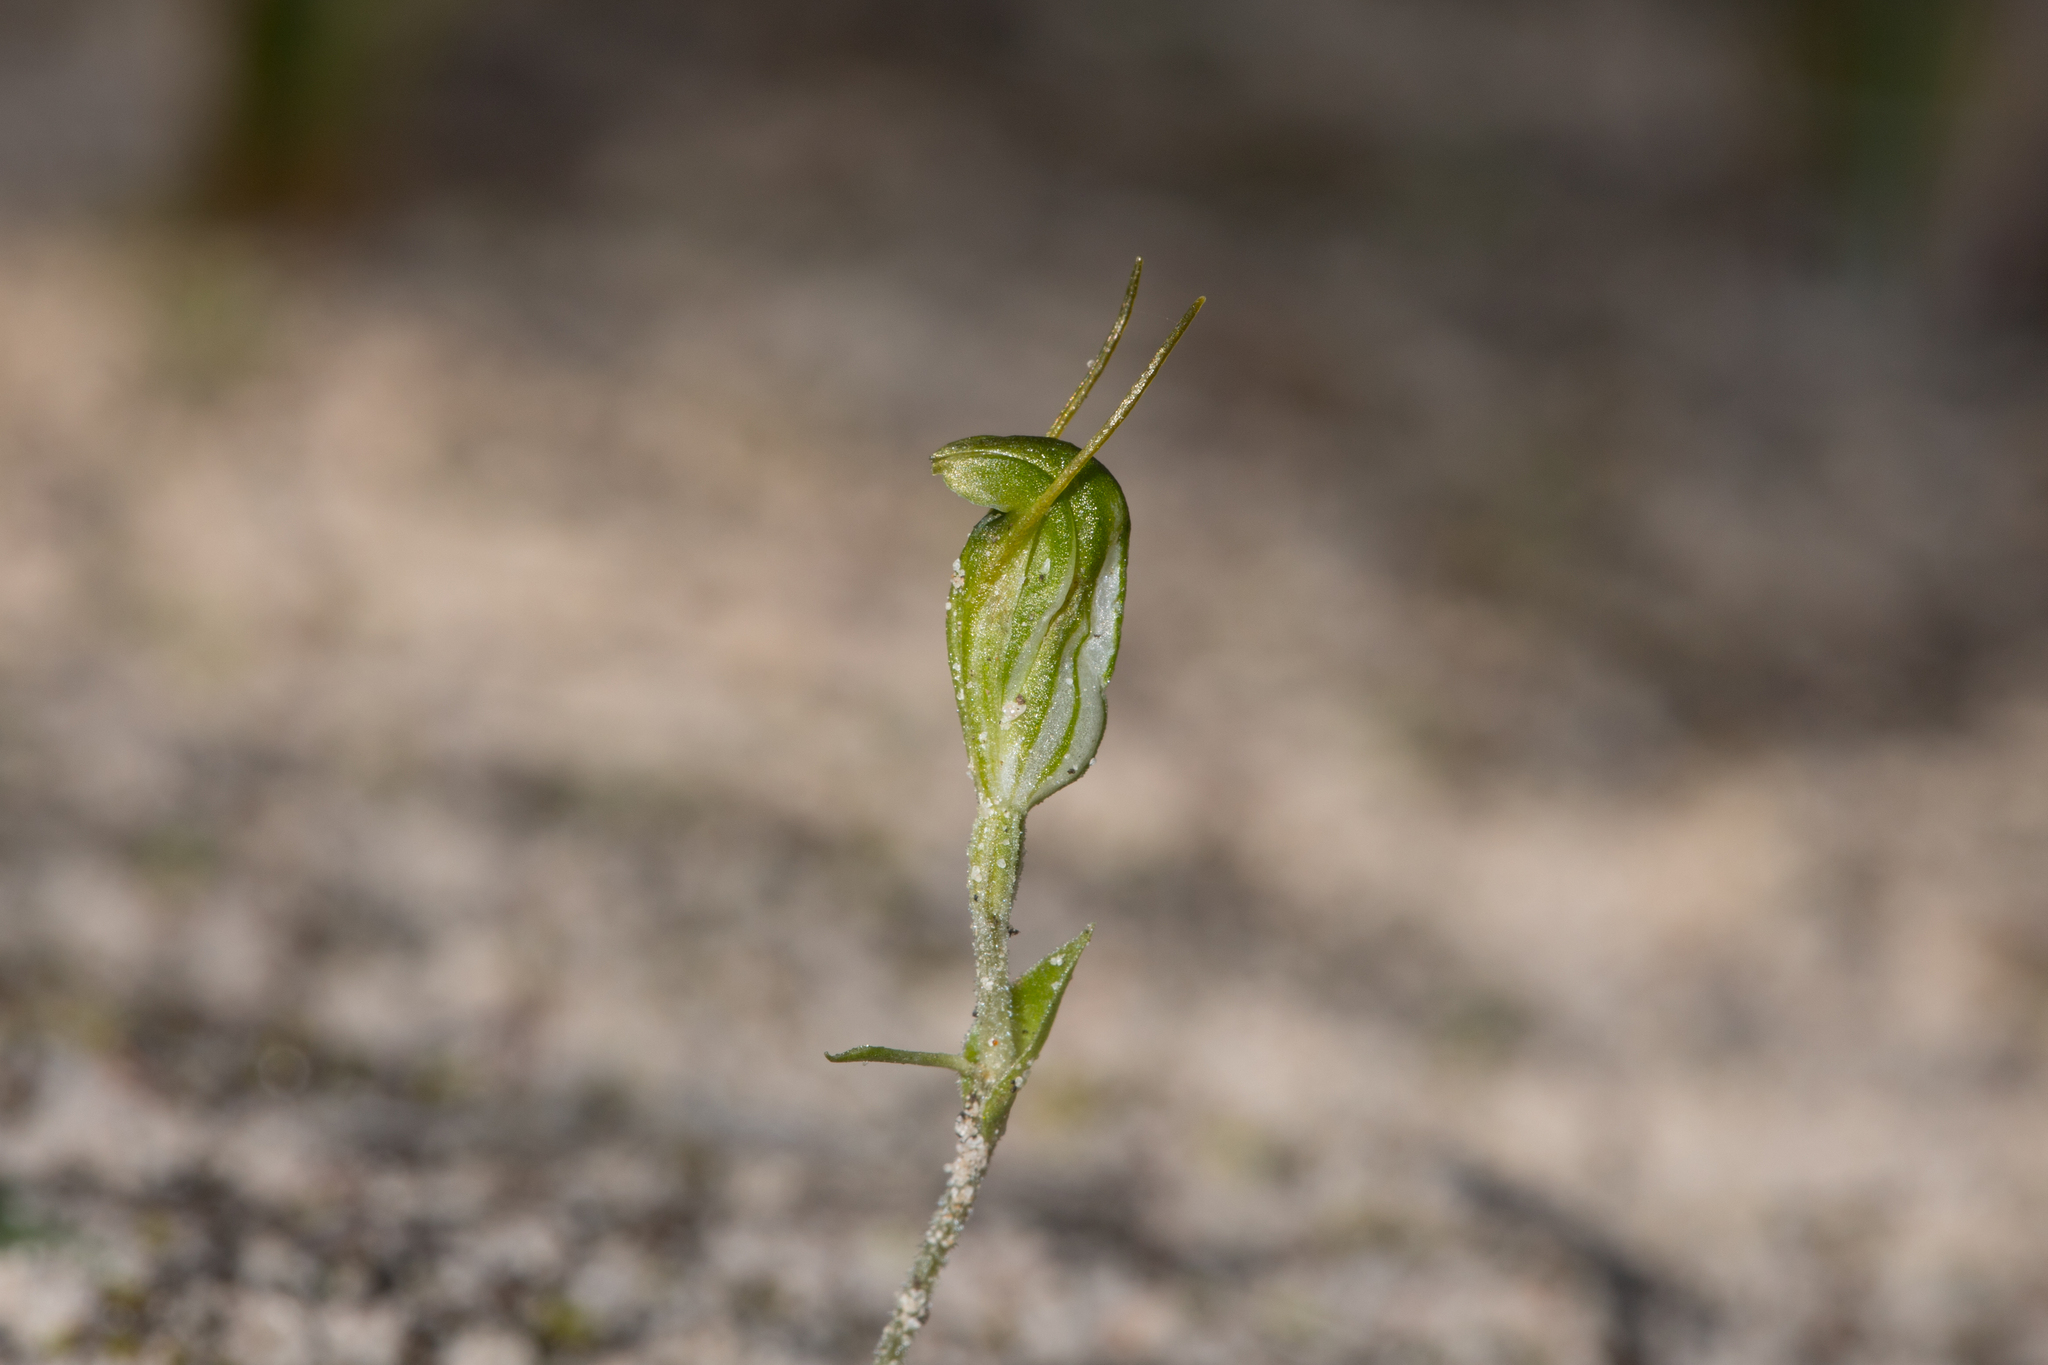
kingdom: Plantae
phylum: Tracheophyta
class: Liliopsida
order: Asparagales
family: Orchidaceae
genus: Pterostylis
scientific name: Pterostylis nana
